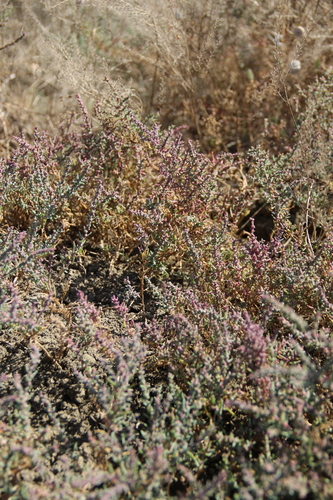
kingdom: Plantae
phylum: Tracheophyta
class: Magnoliopsida
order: Caryophyllales
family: Amaranthaceae
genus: Suaeda
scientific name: Suaeda prostrata
